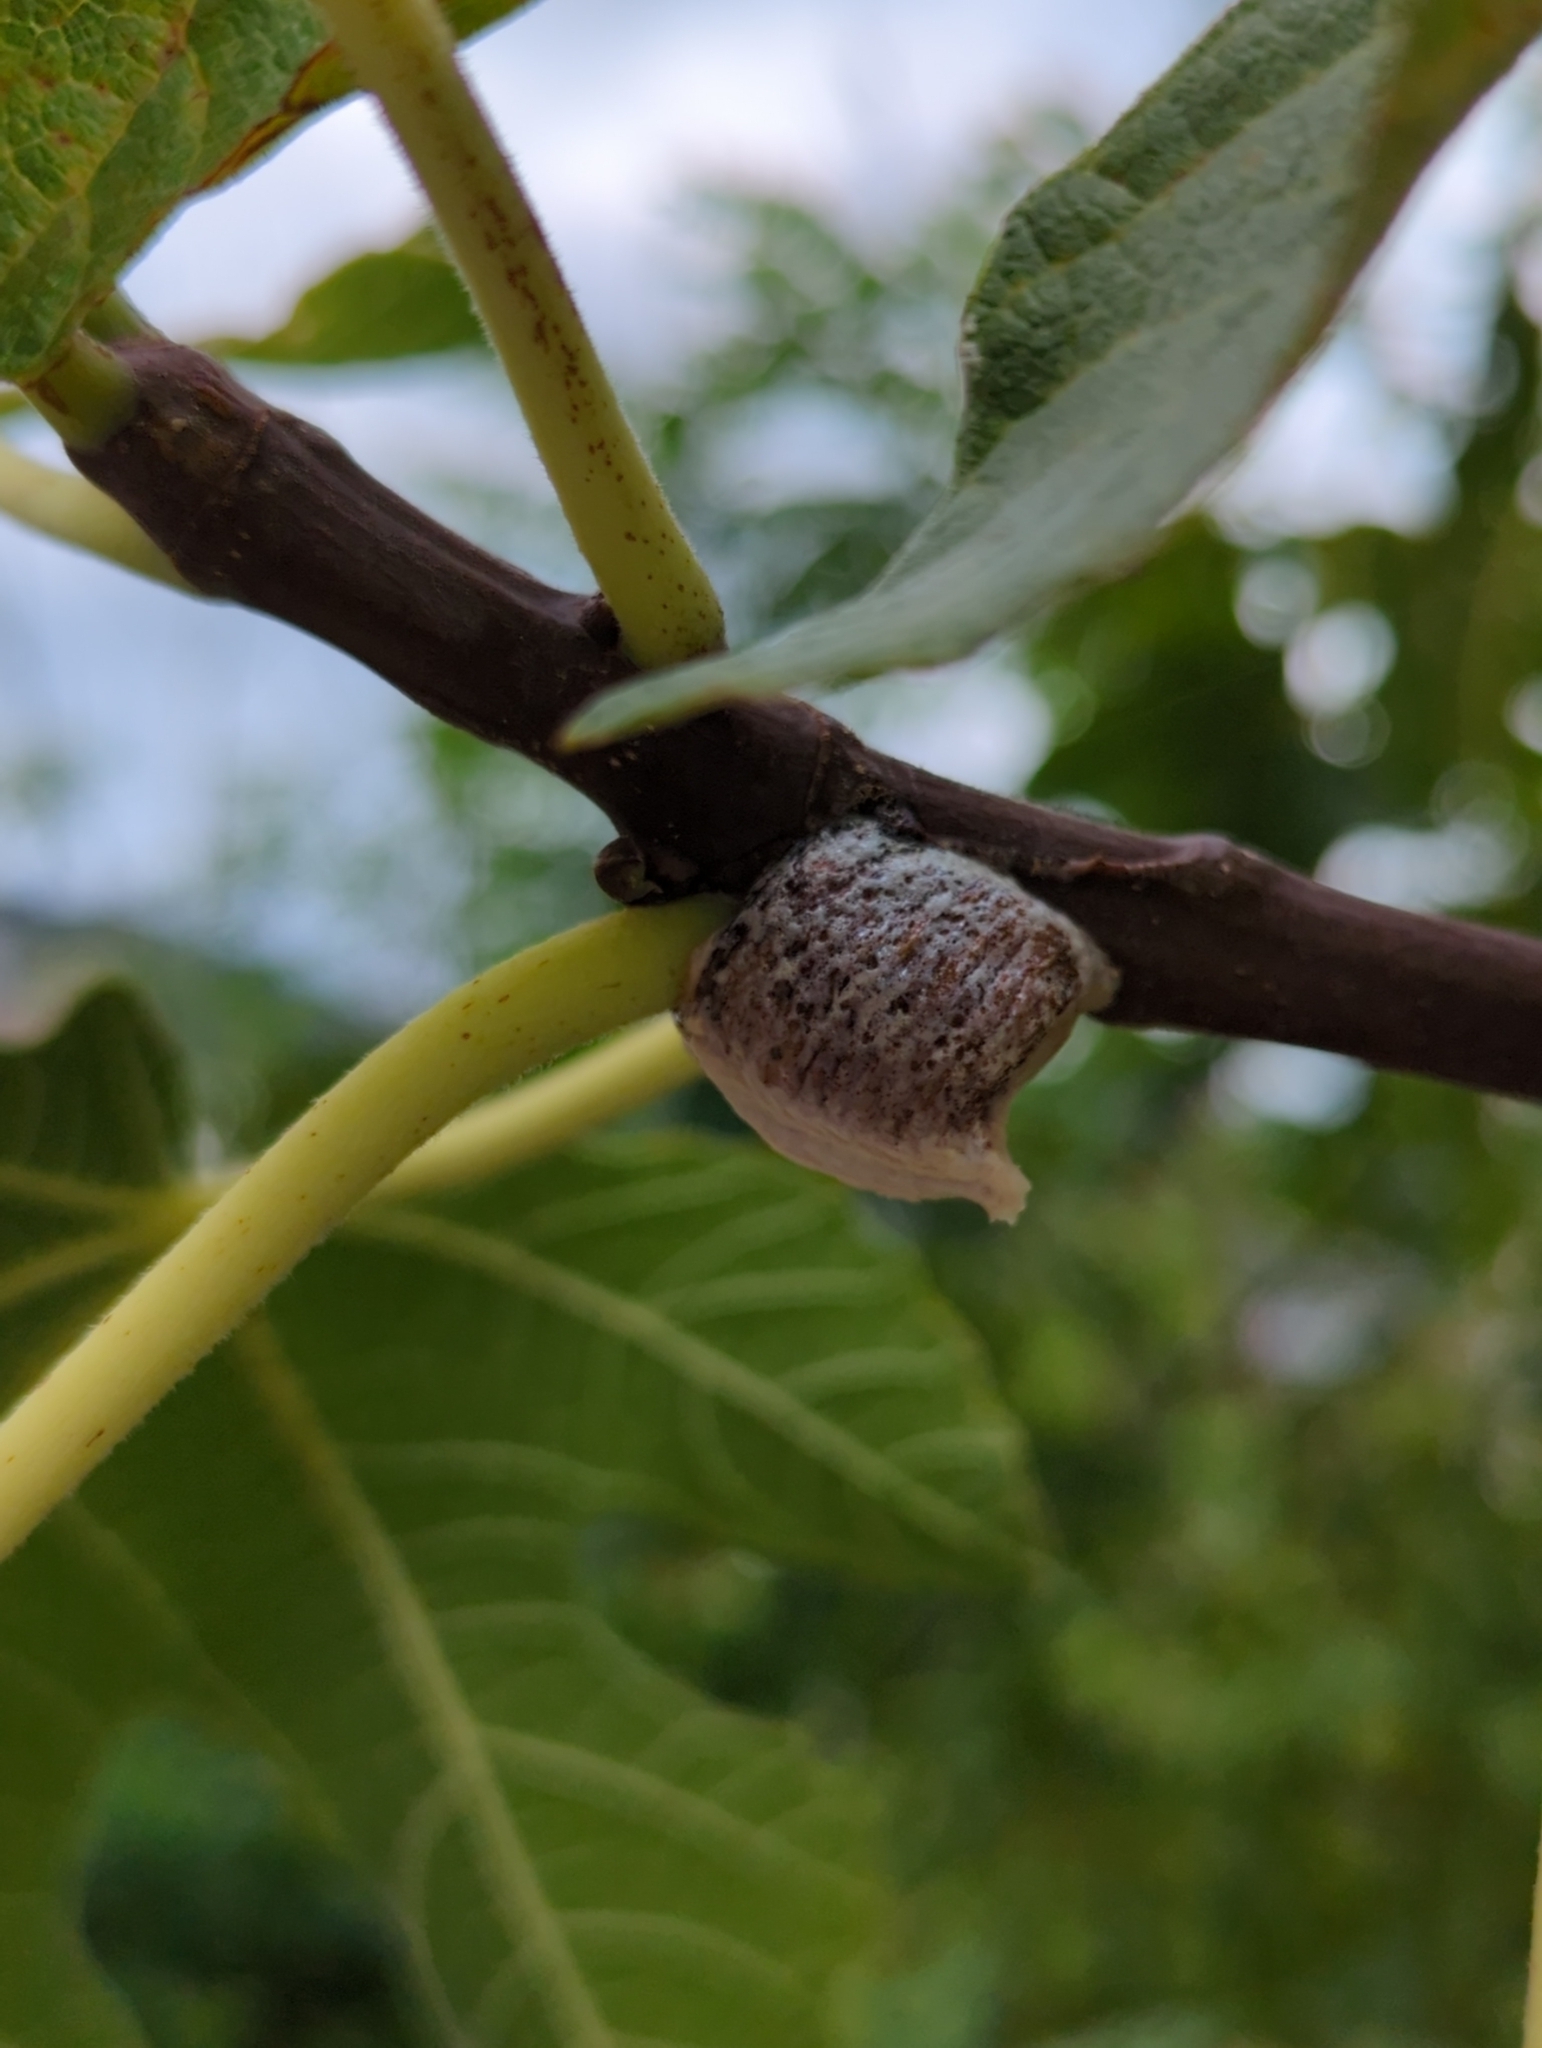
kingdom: Animalia
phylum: Arthropoda
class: Insecta
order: Mantodea
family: Mantidae
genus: Hierodula
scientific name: Hierodula transcaucasica
